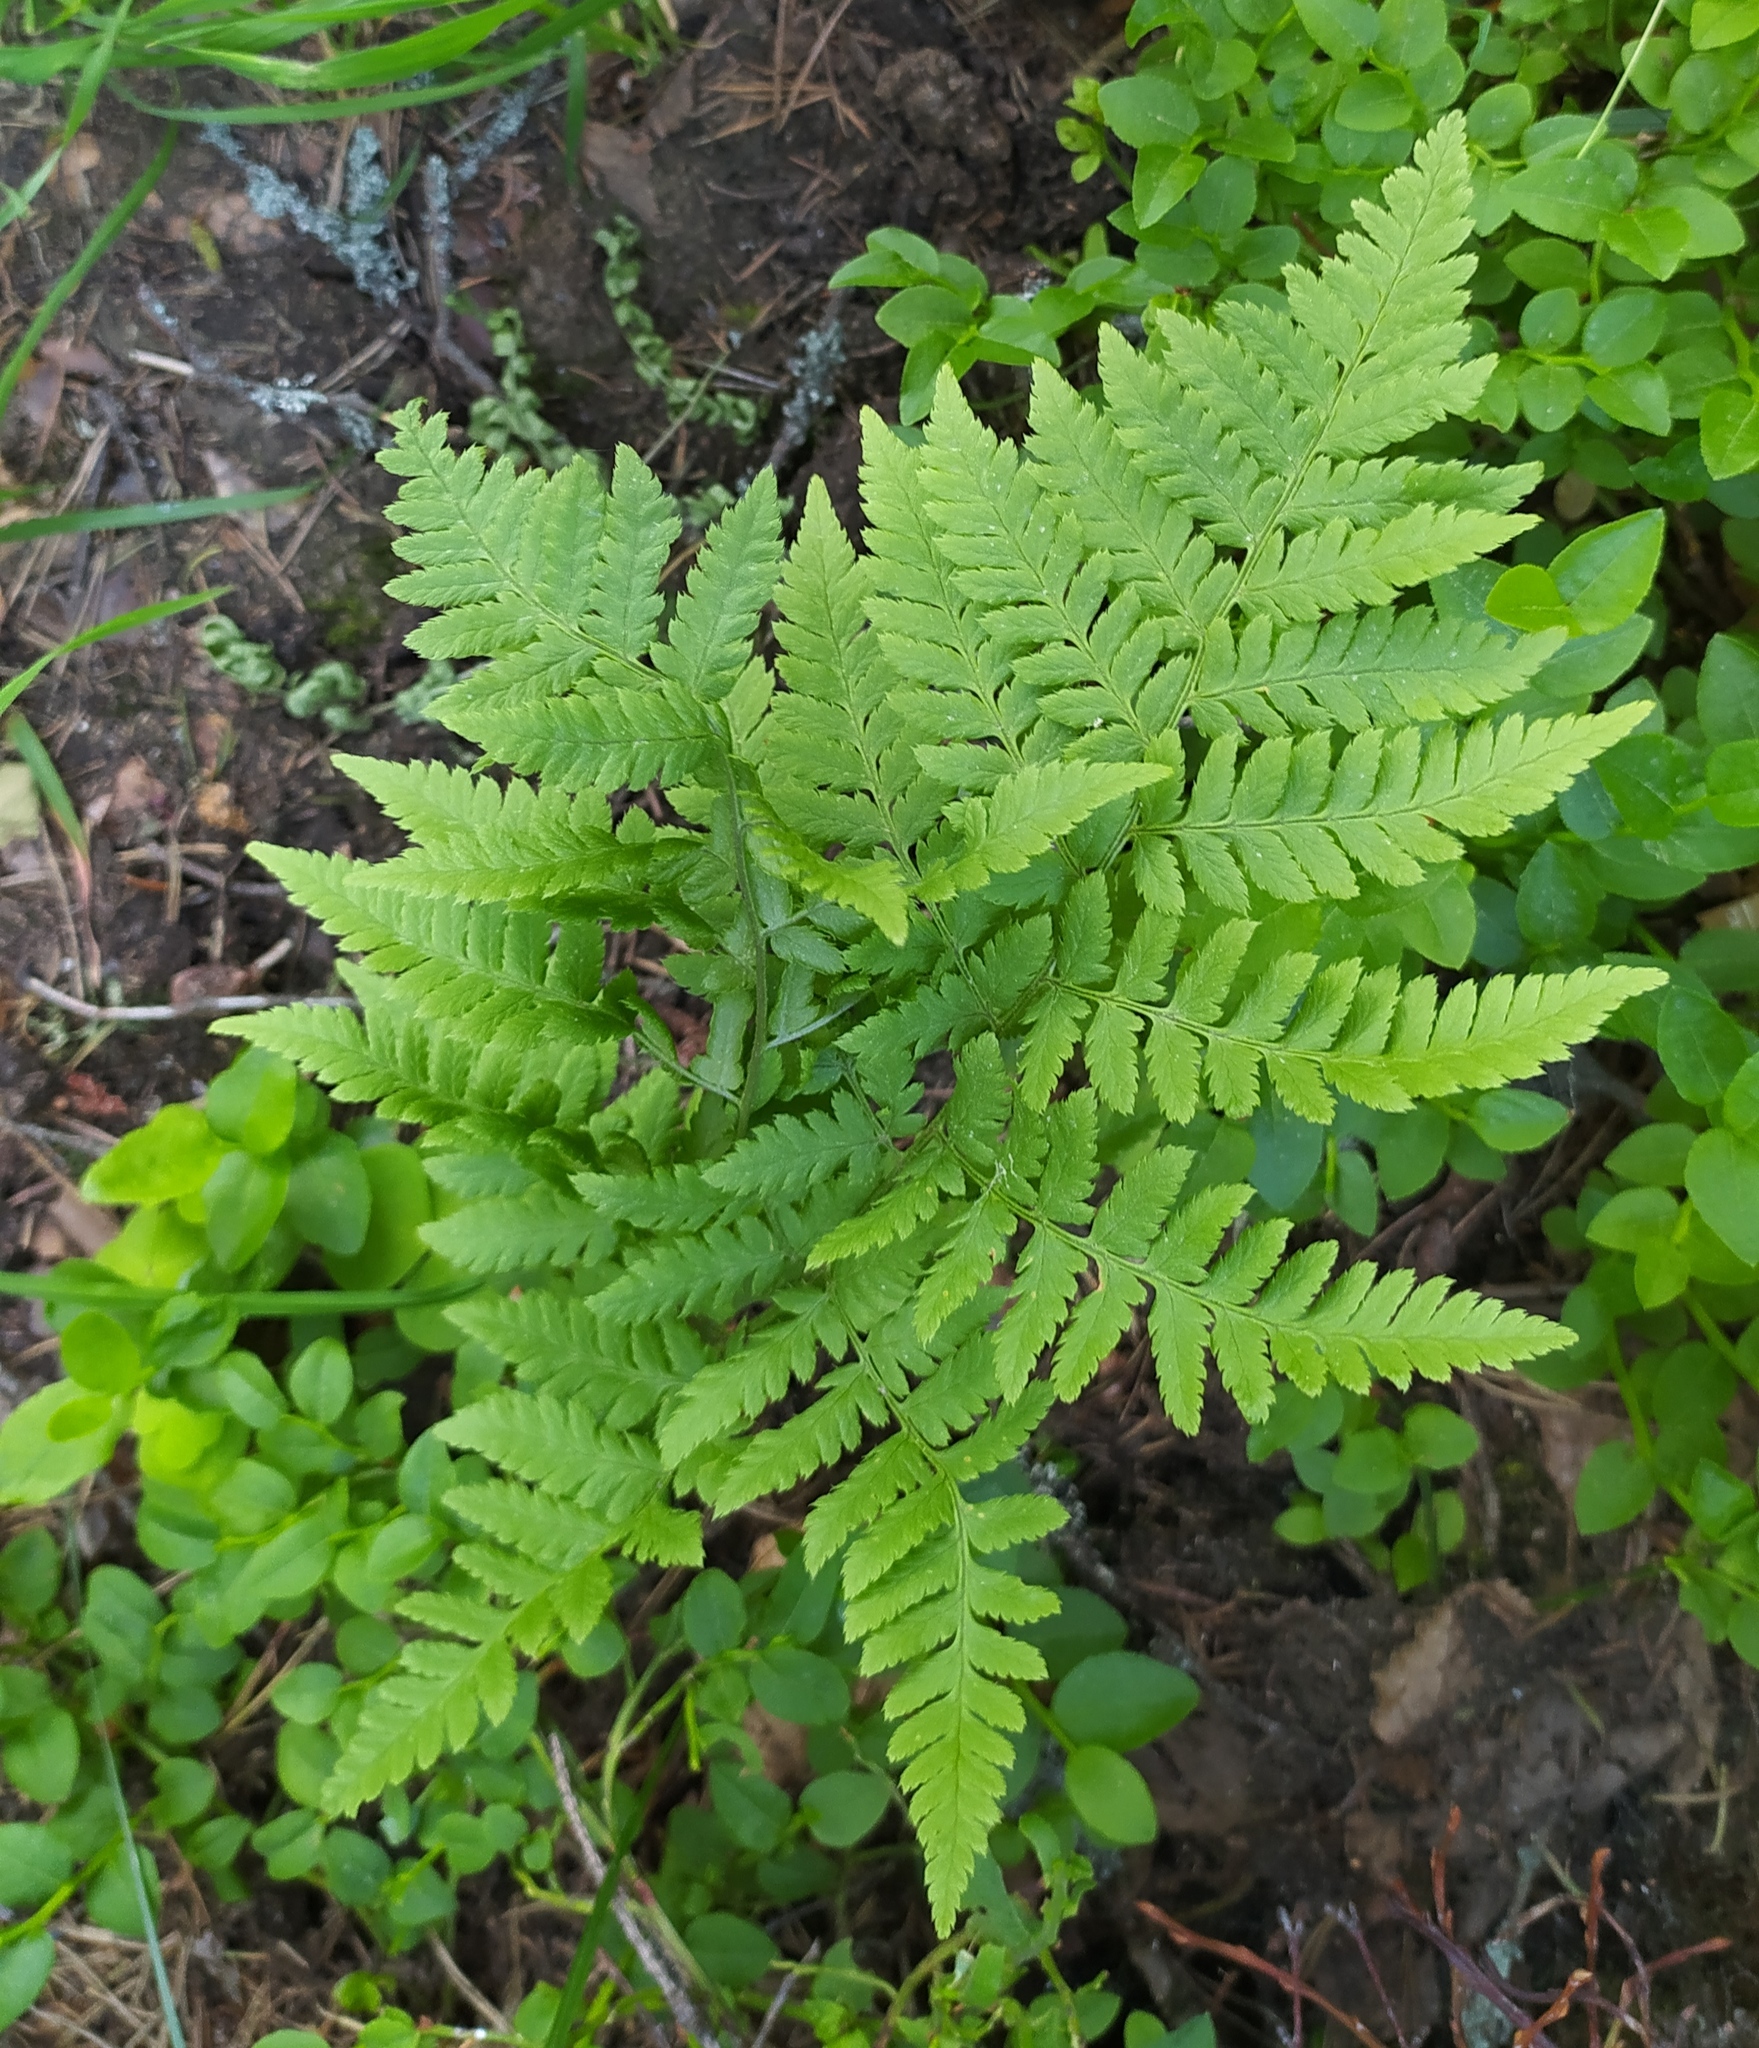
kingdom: Plantae
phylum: Tracheophyta
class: Polypodiopsida
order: Polypodiales
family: Dryopteridaceae
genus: Dryopteris
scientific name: Dryopteris carthusiana
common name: Narrow buckler-fern
